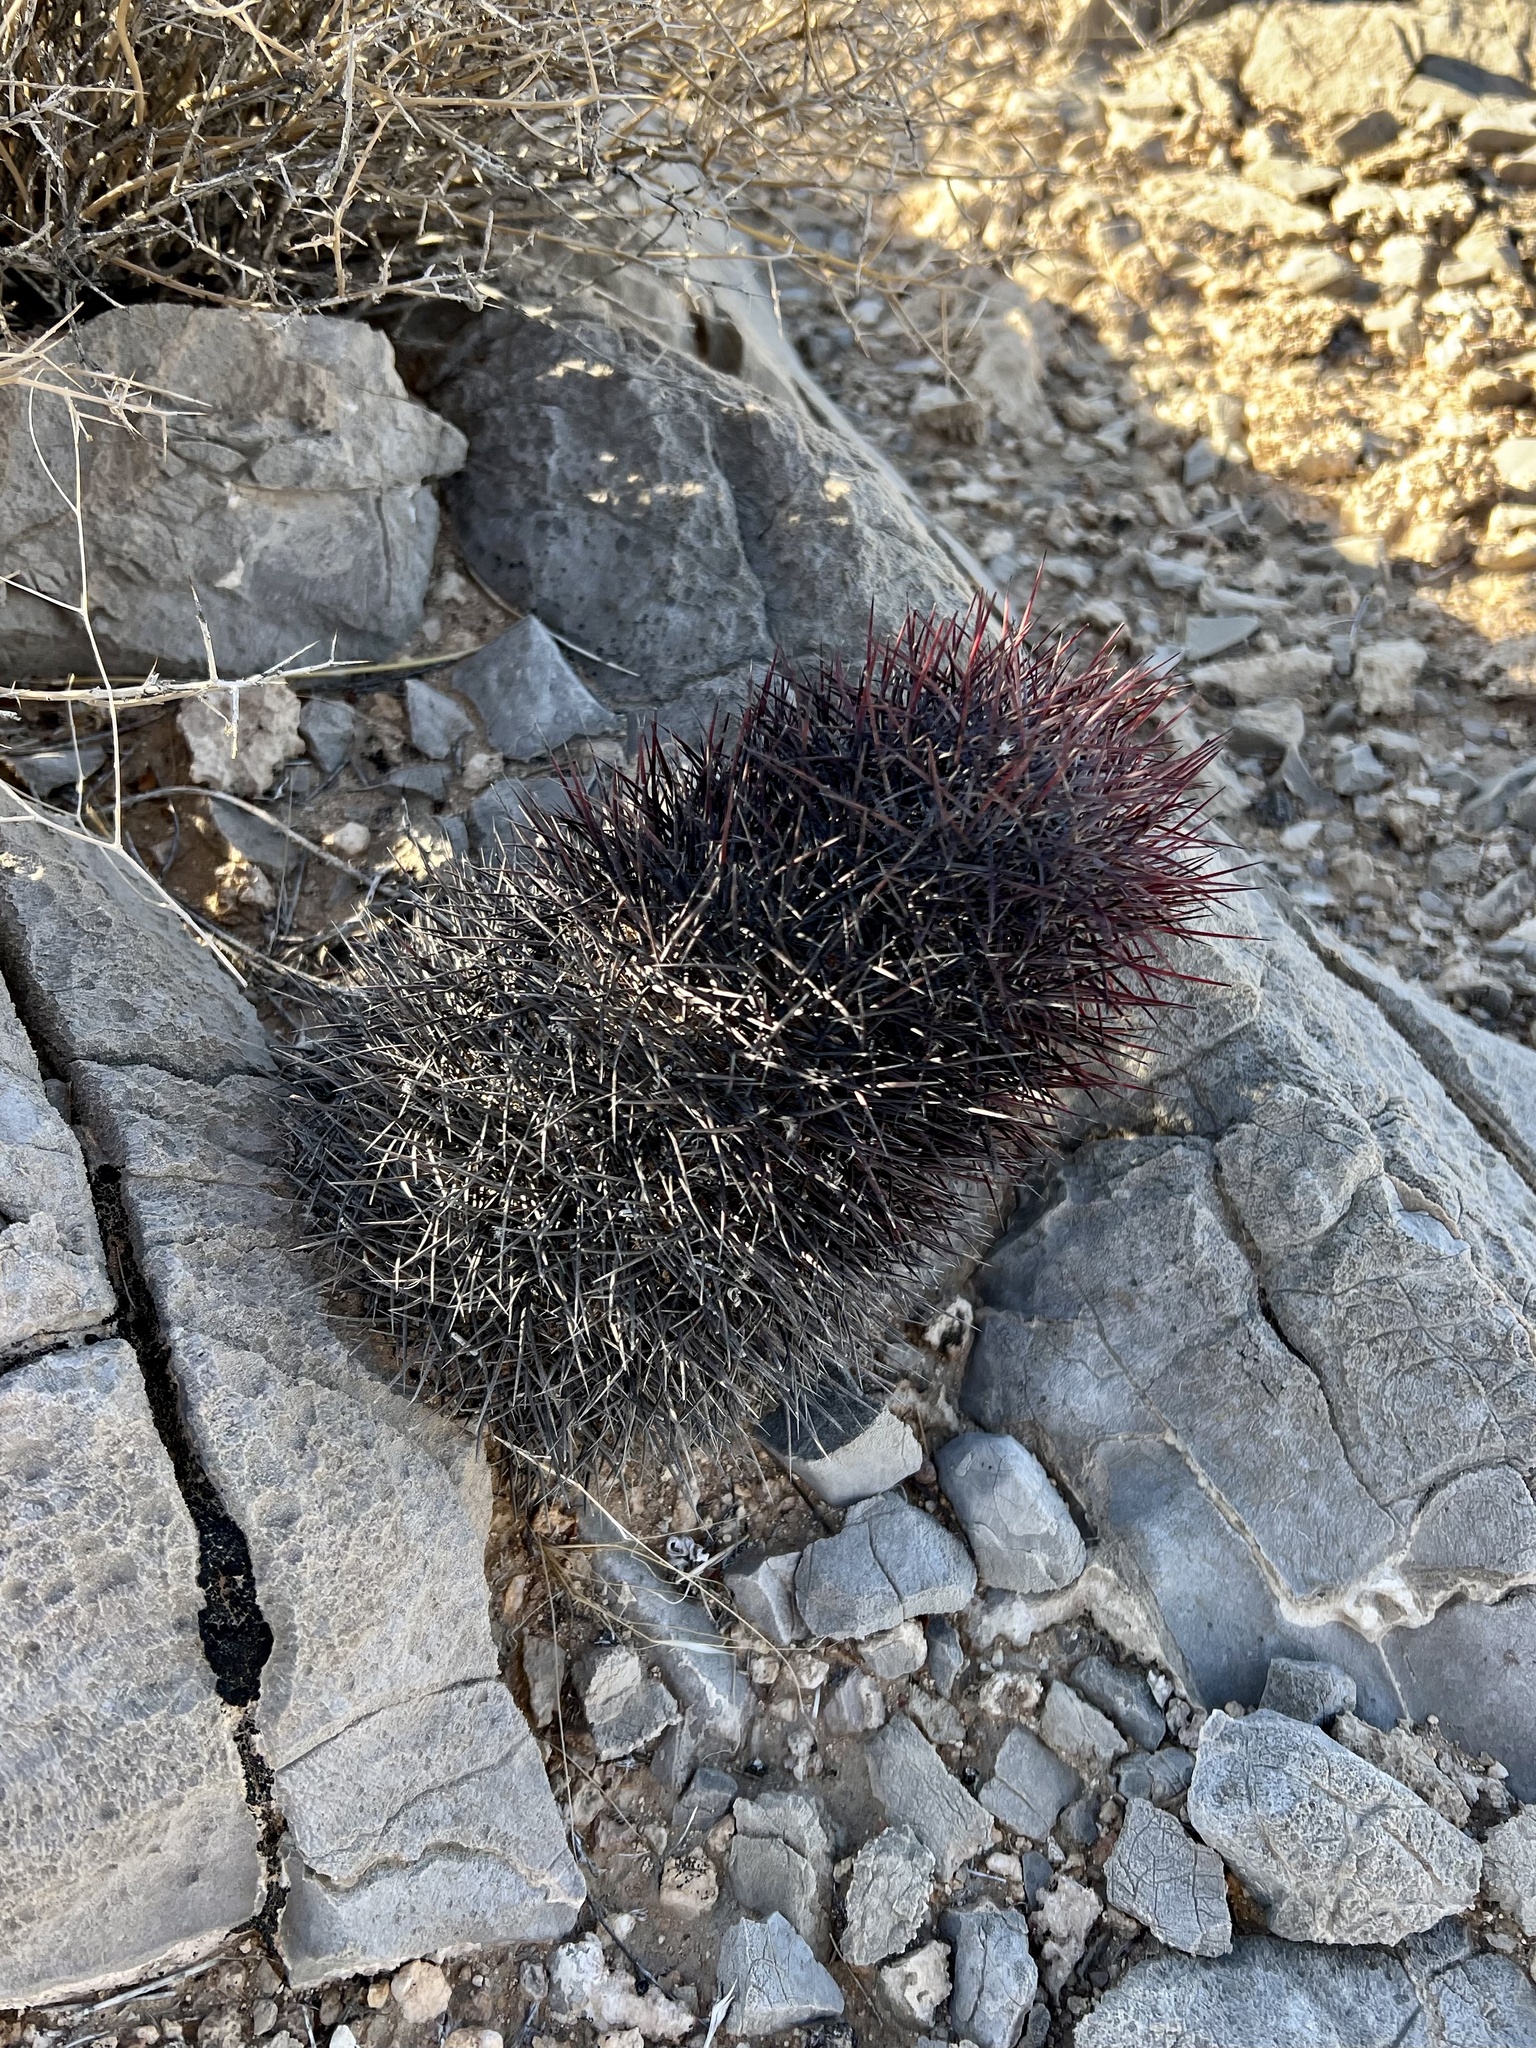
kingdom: Plantae
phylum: Tracheophyta
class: Magnoliopsida
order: Caryophyllales
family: Cactaceae
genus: Sclerocactus
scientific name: Sclerocactus johnsonii
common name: Eight-spine fishhook cactus
